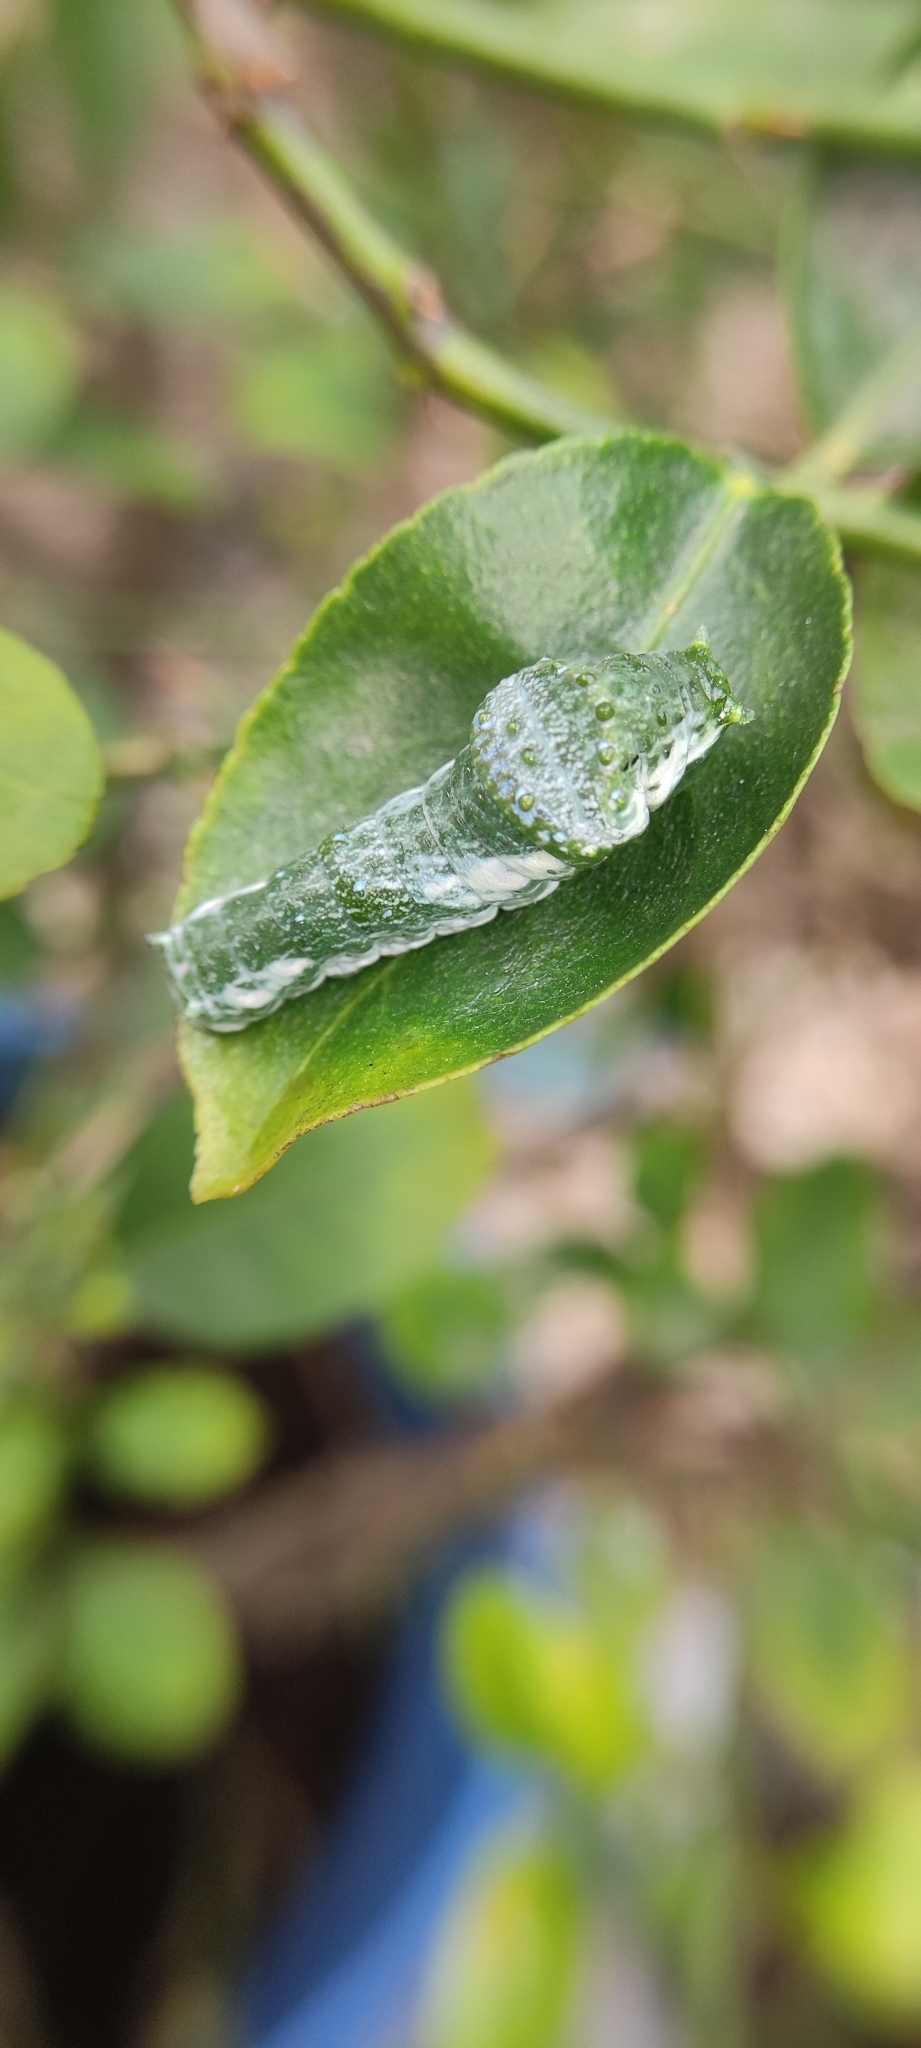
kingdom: Animalia
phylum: Arthropoda
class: Insecta
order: Lepidoptera
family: Papilionidae
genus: Papilio
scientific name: Papilio memnon
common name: Great mormon
